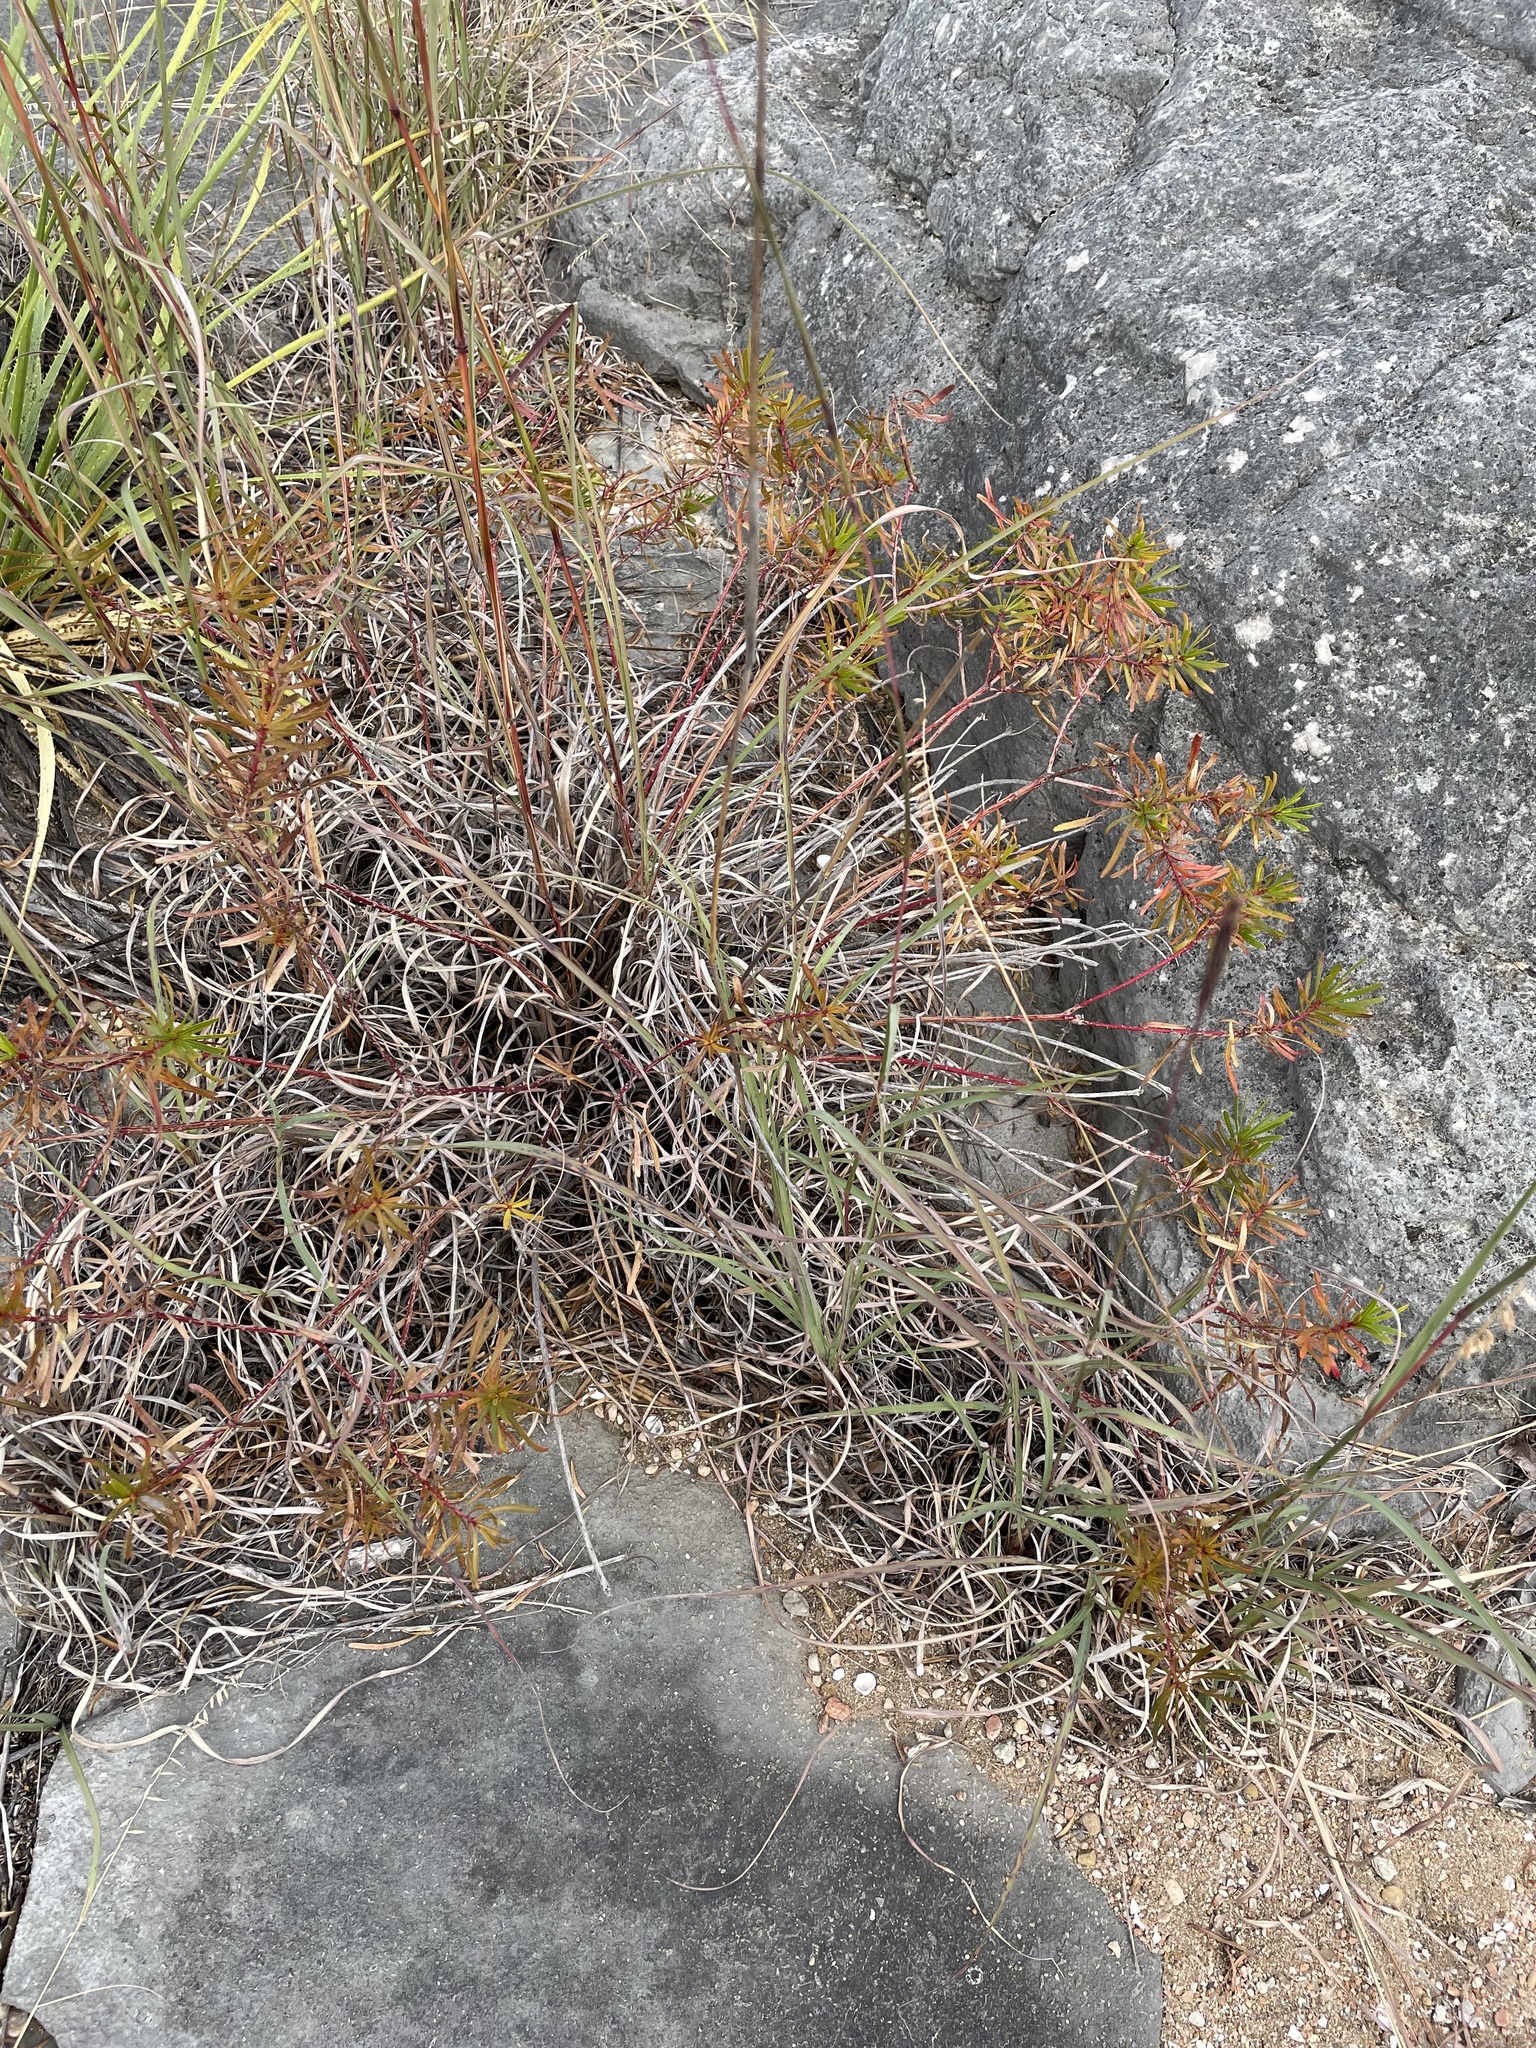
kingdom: Plantae
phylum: Tracheophyta
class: Magnoliopsida
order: Malpighiales
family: Euphorbiaceae
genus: Stillingia
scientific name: Stillingia texana
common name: Texas stillingia
